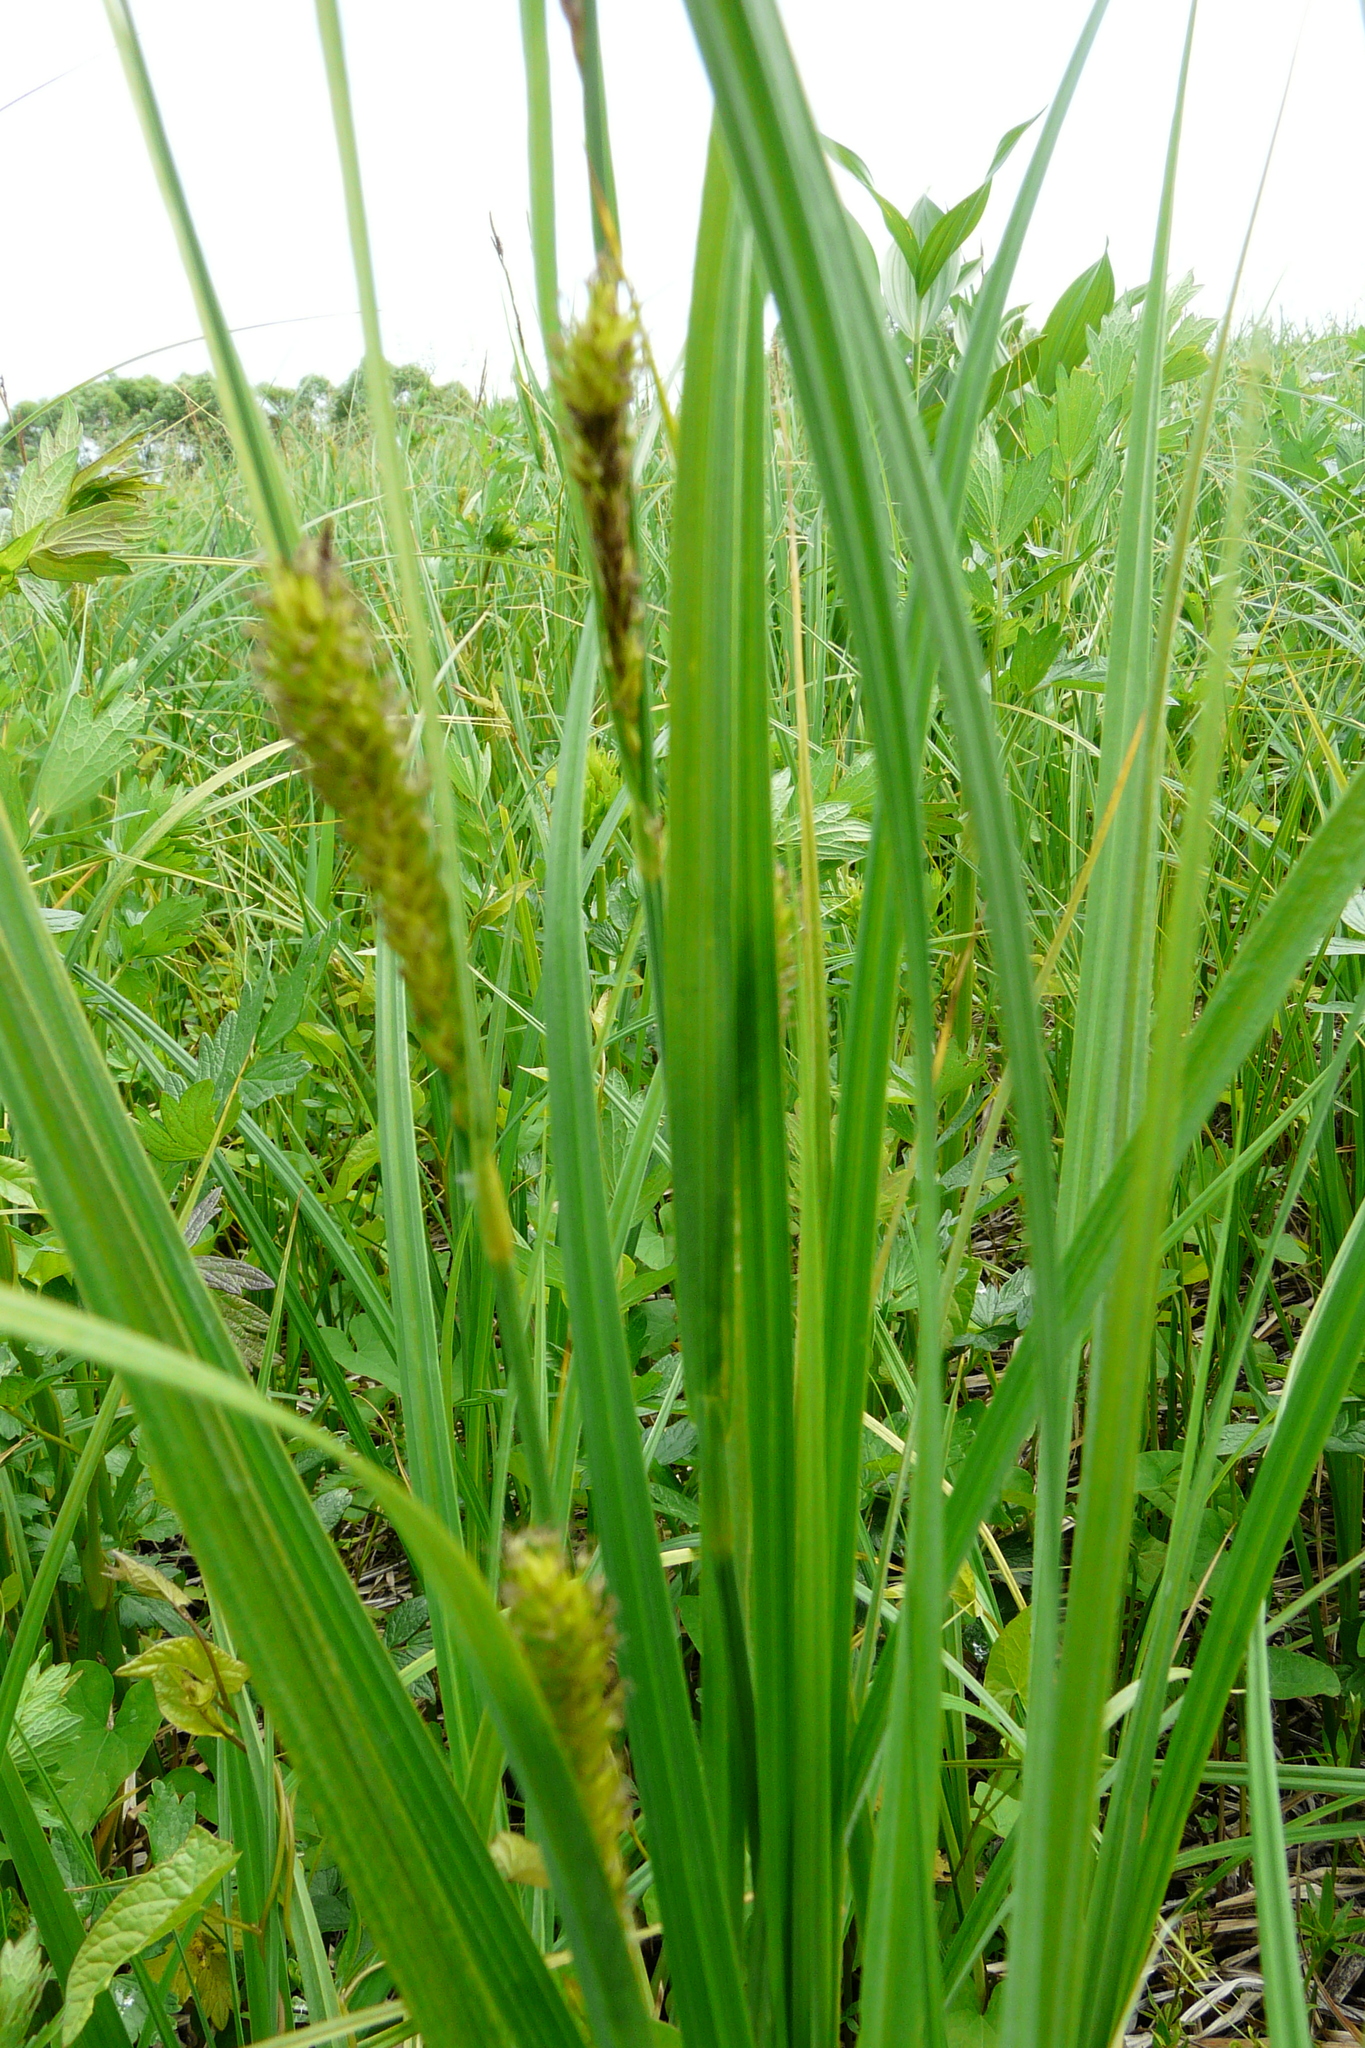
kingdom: Plantae
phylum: Tracheophyta
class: Liliopsida
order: Poales
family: Cyperaceae
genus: Carex
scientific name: Carex hirta
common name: Hairy sedge
